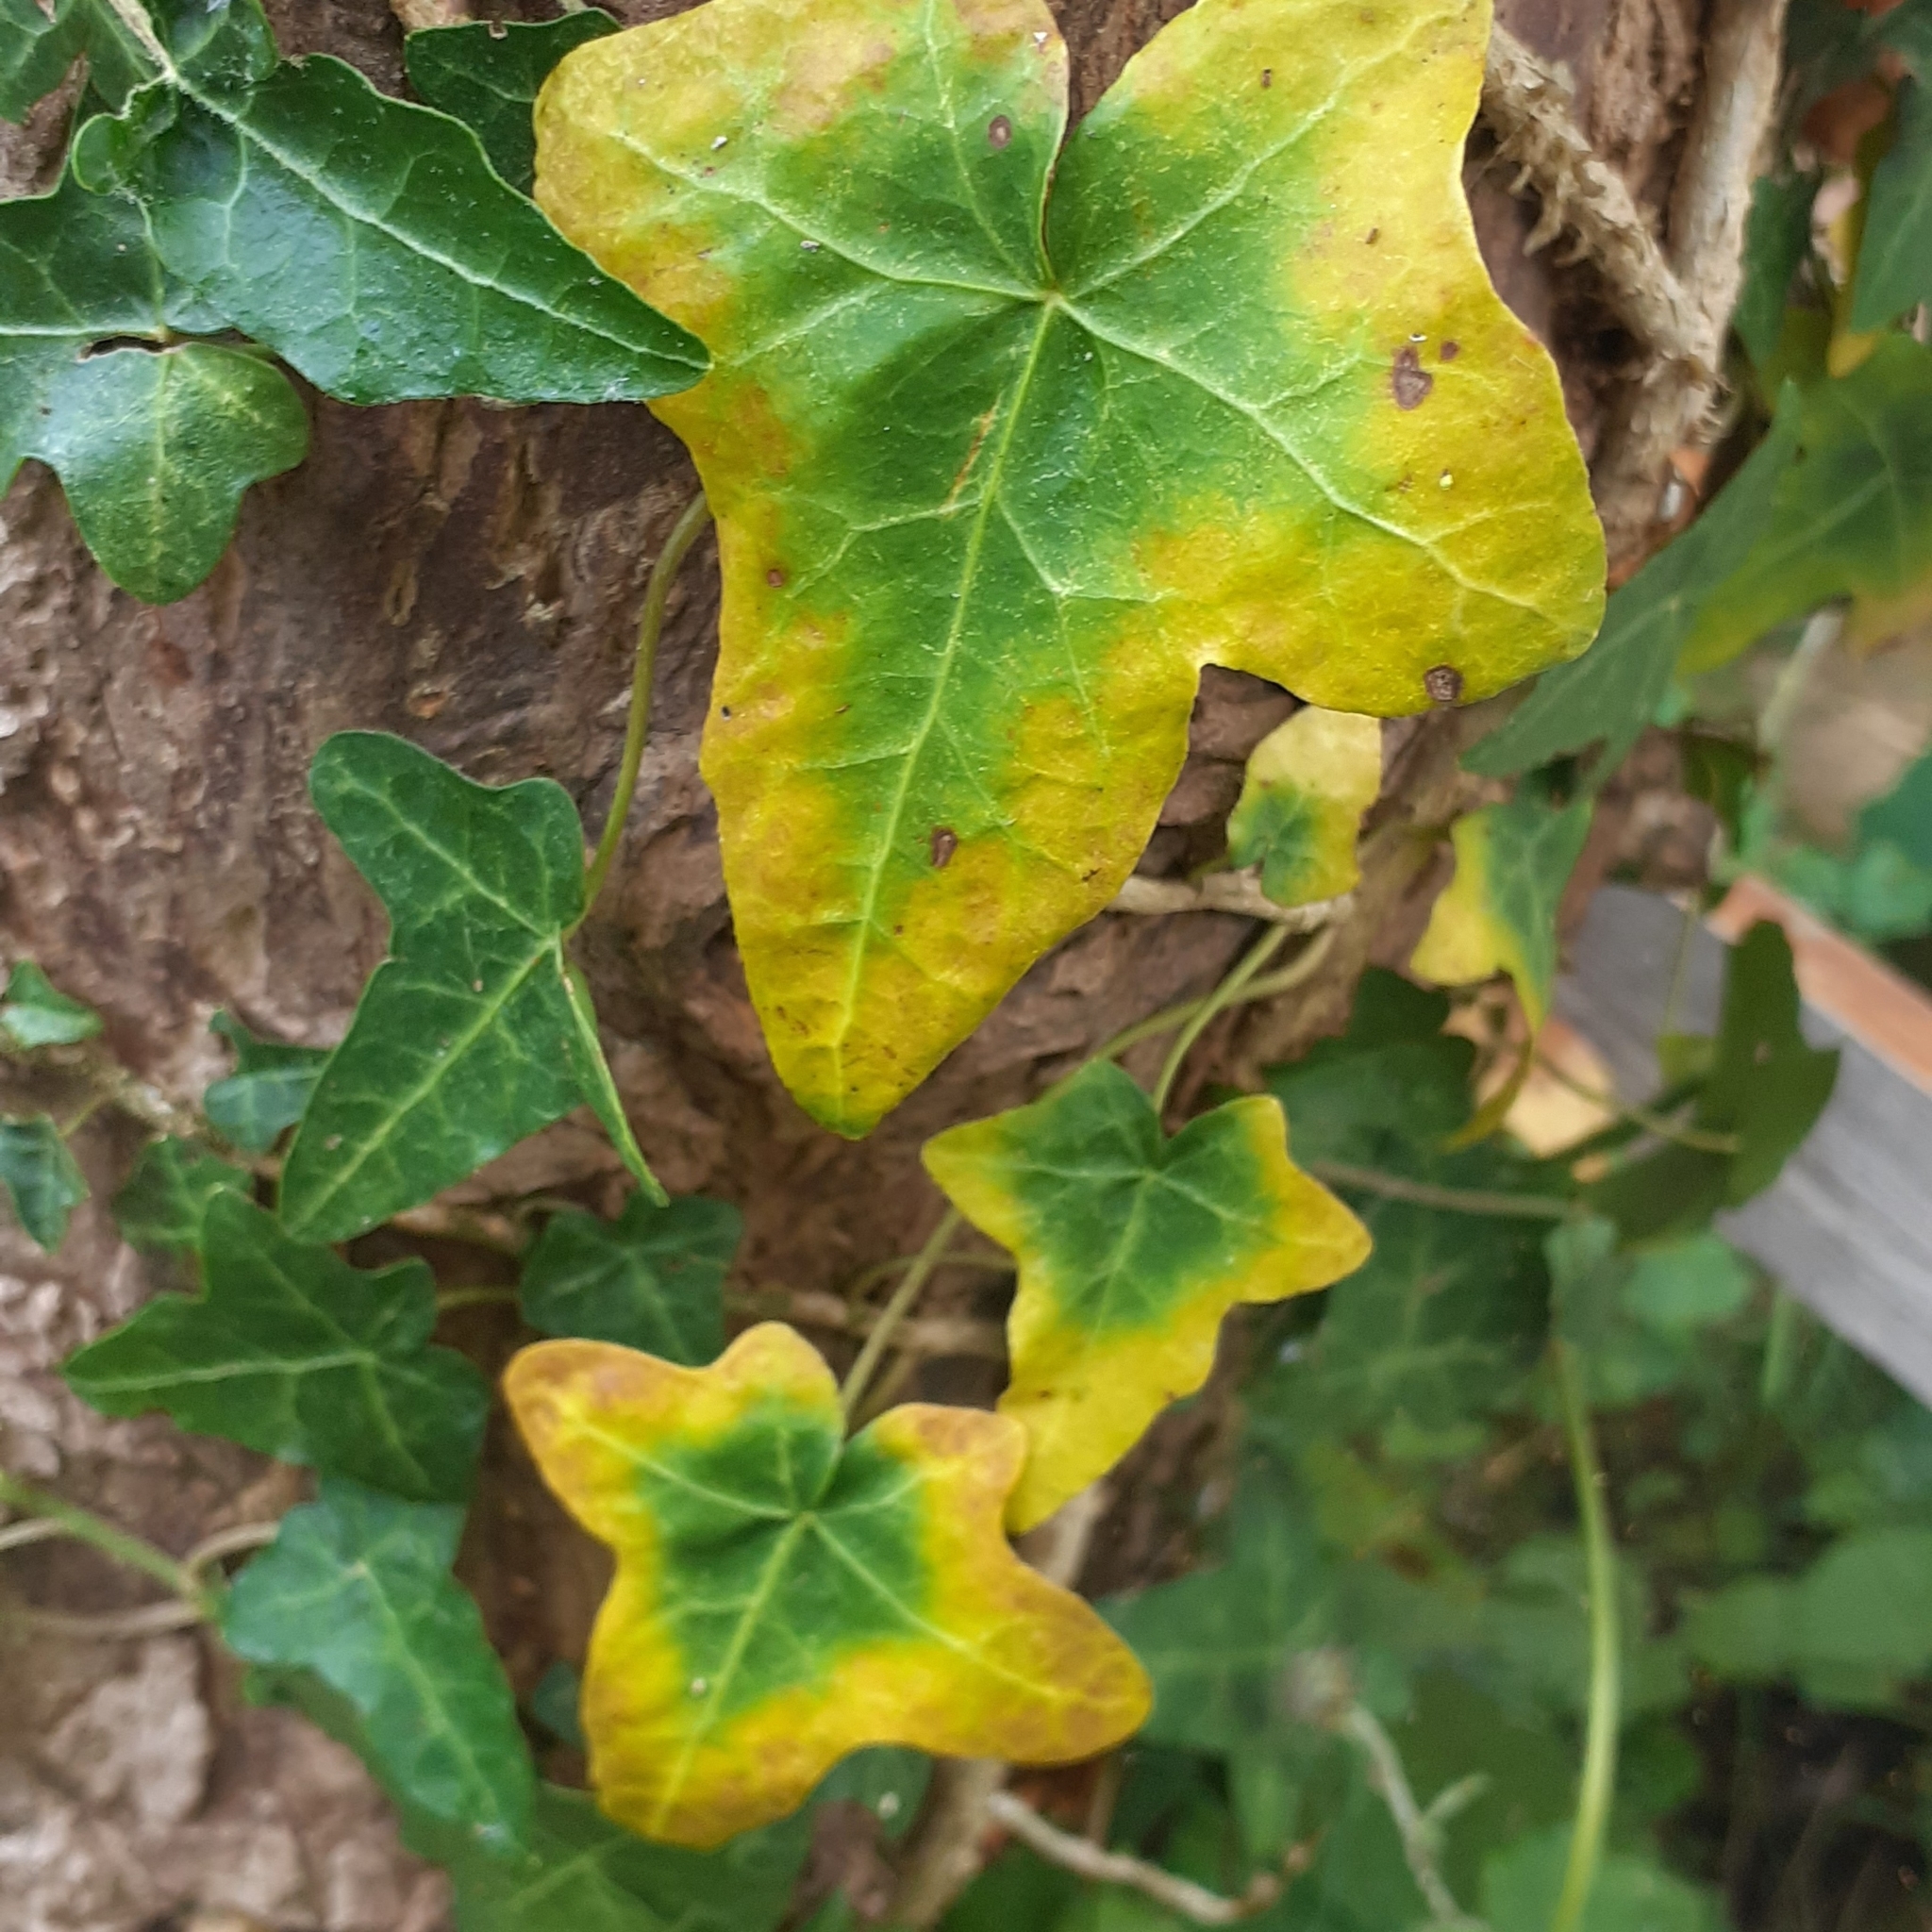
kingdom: Plantae
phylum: Tracheophyta
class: Magnoliopsida
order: Apiales
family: Araliaceae
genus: Hedera
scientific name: Hedera helix
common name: Ivy
